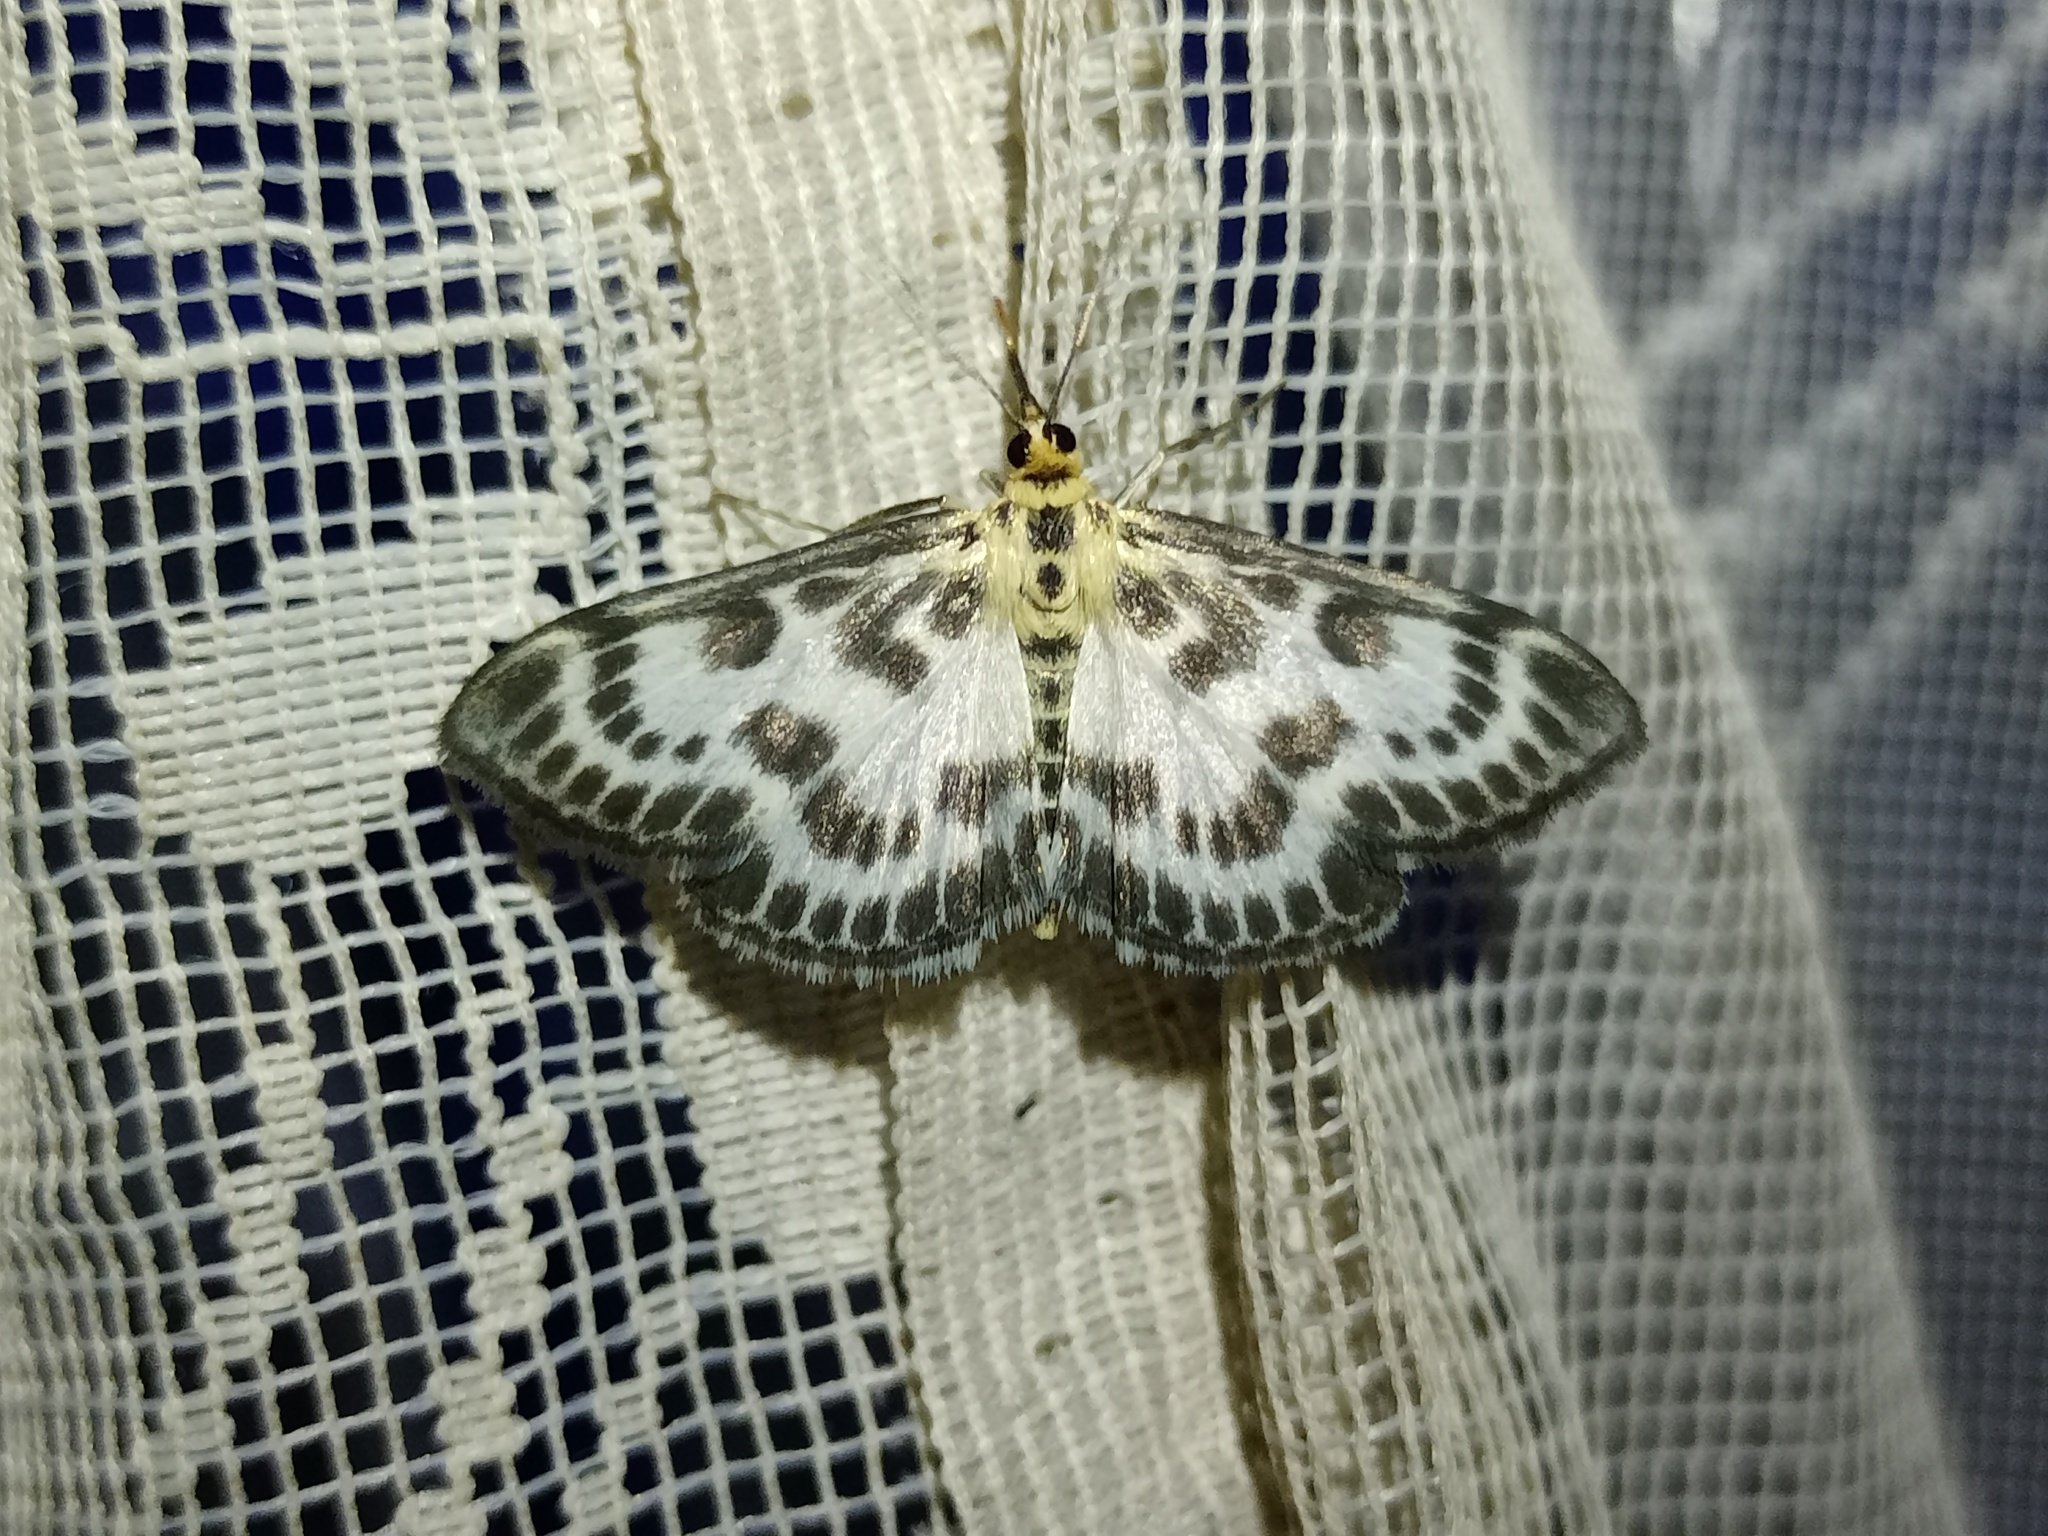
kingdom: Animalia
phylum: Arthropoda
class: Insecta
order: Lepidoptera
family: Crambidae
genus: Anania
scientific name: Anania hortulata
